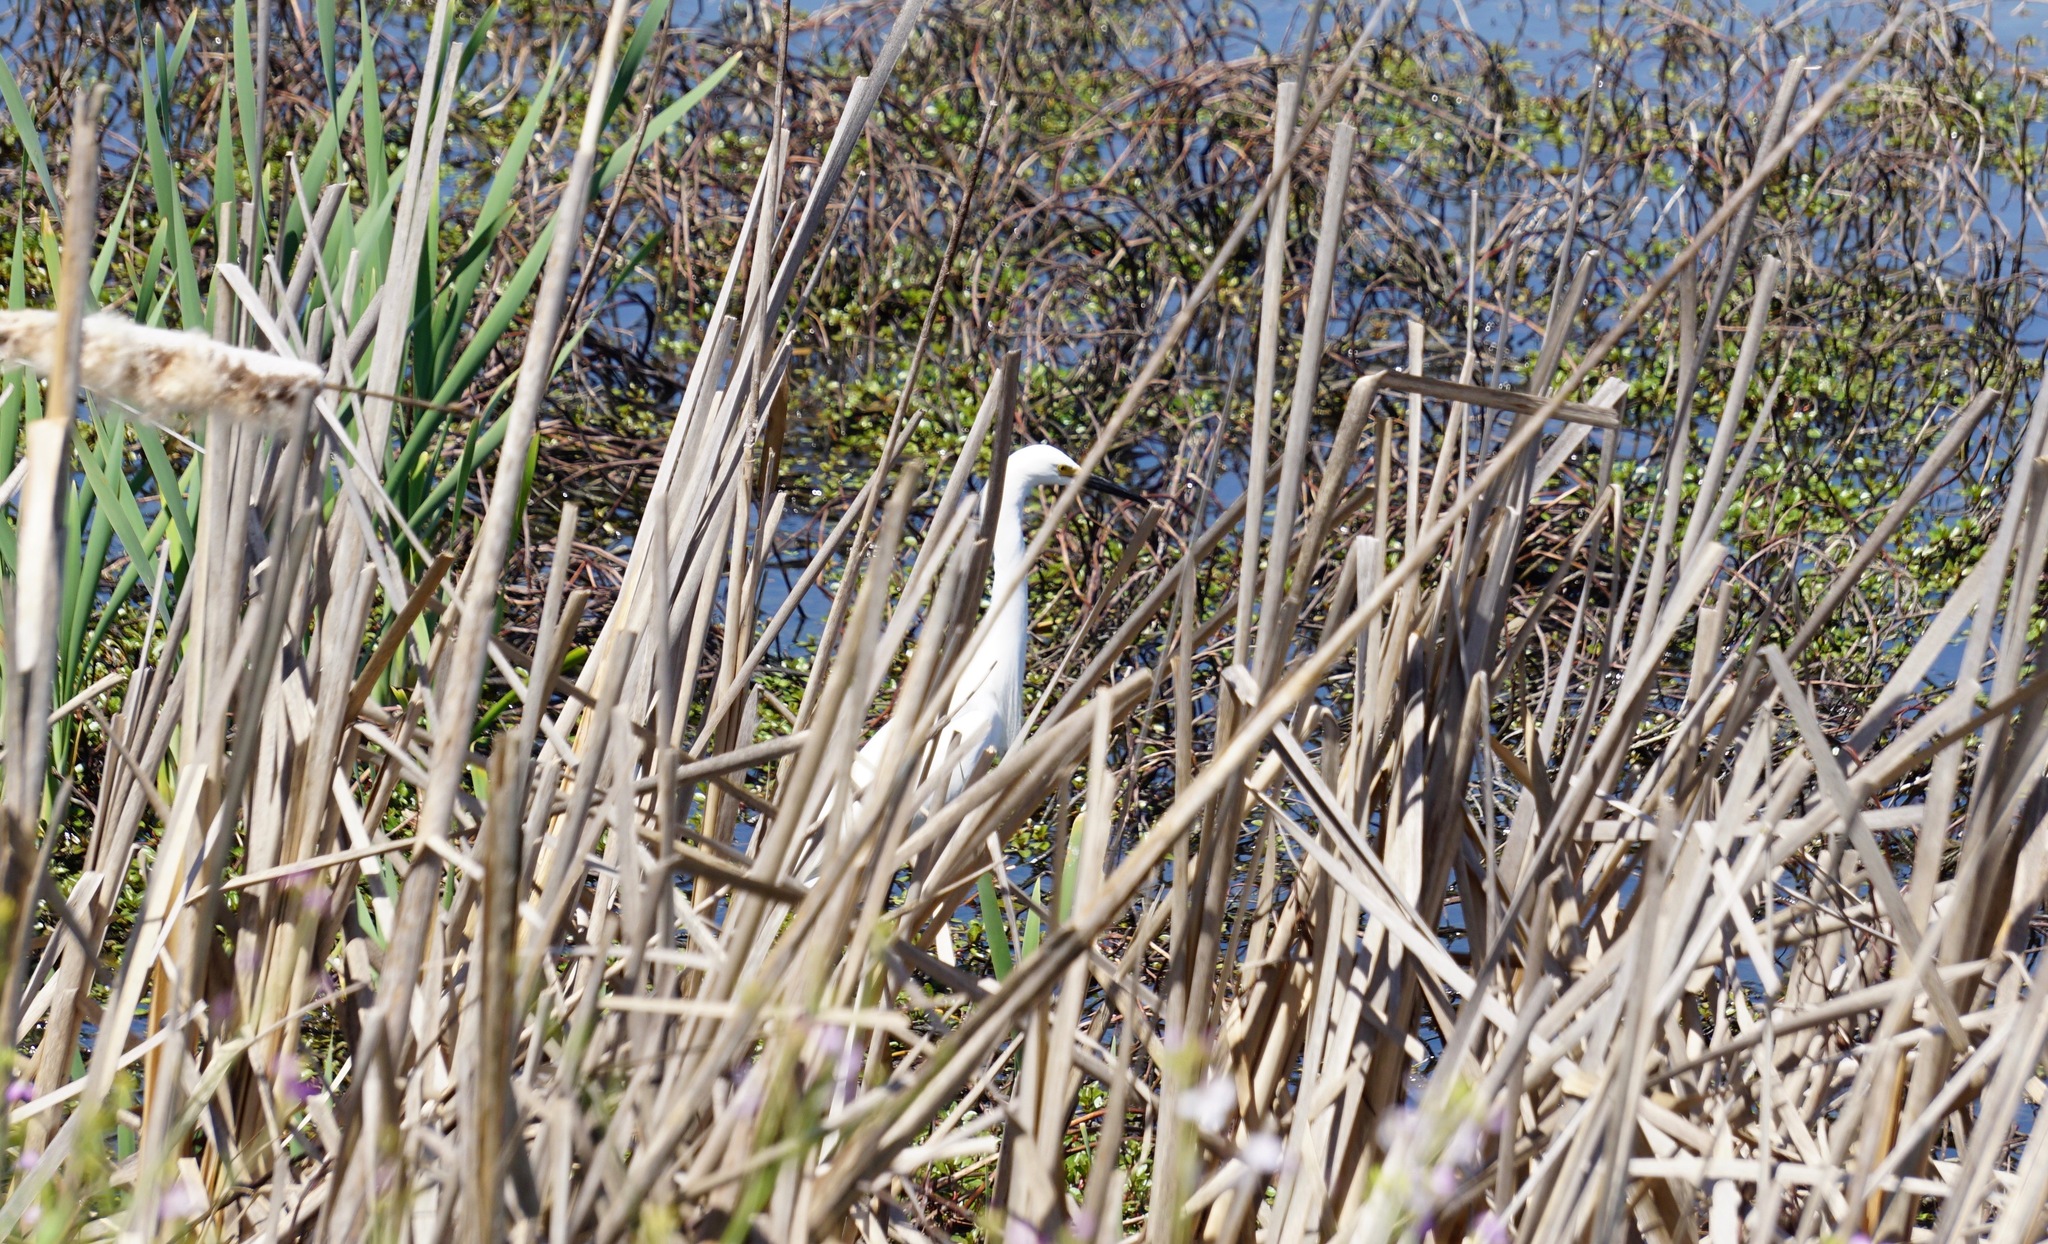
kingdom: Animalia
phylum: Chordata
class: Aves
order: Pelecaniformes
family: Ardeidae
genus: Egretta
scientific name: Egretta thula
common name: Snowy egret
